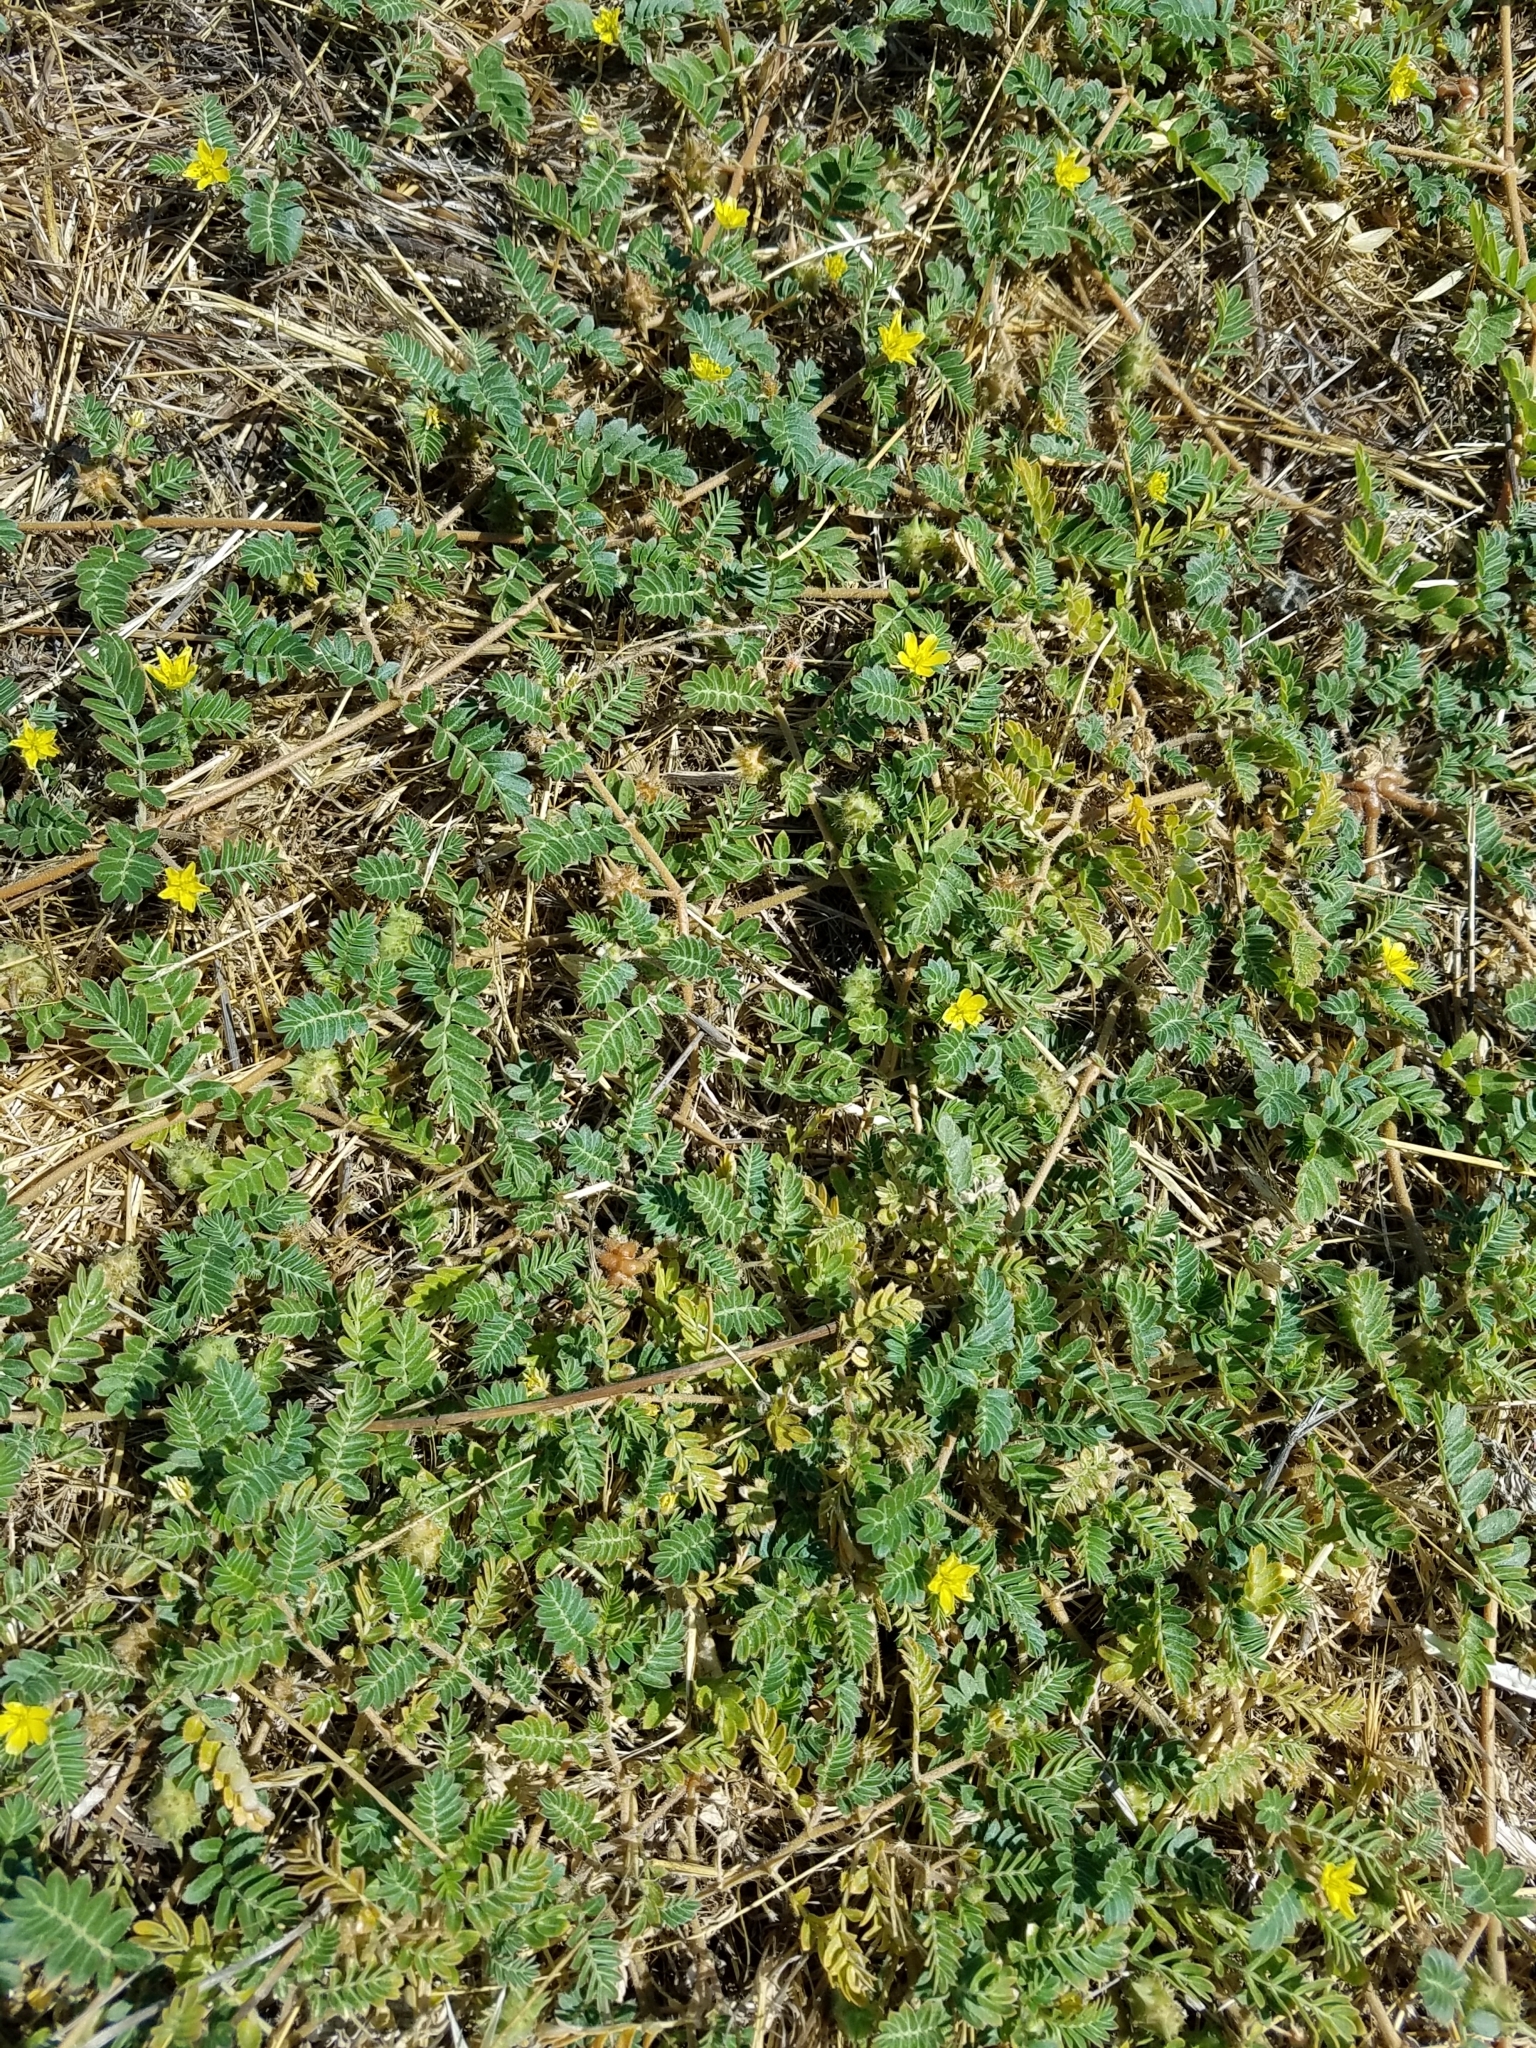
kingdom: Plantae
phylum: Tracheophyta
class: Magnoliopsida
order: Zygophyllales
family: Zygophyllaceae
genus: Tribulus
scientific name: Tribulus terrestris
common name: Puncturevine
